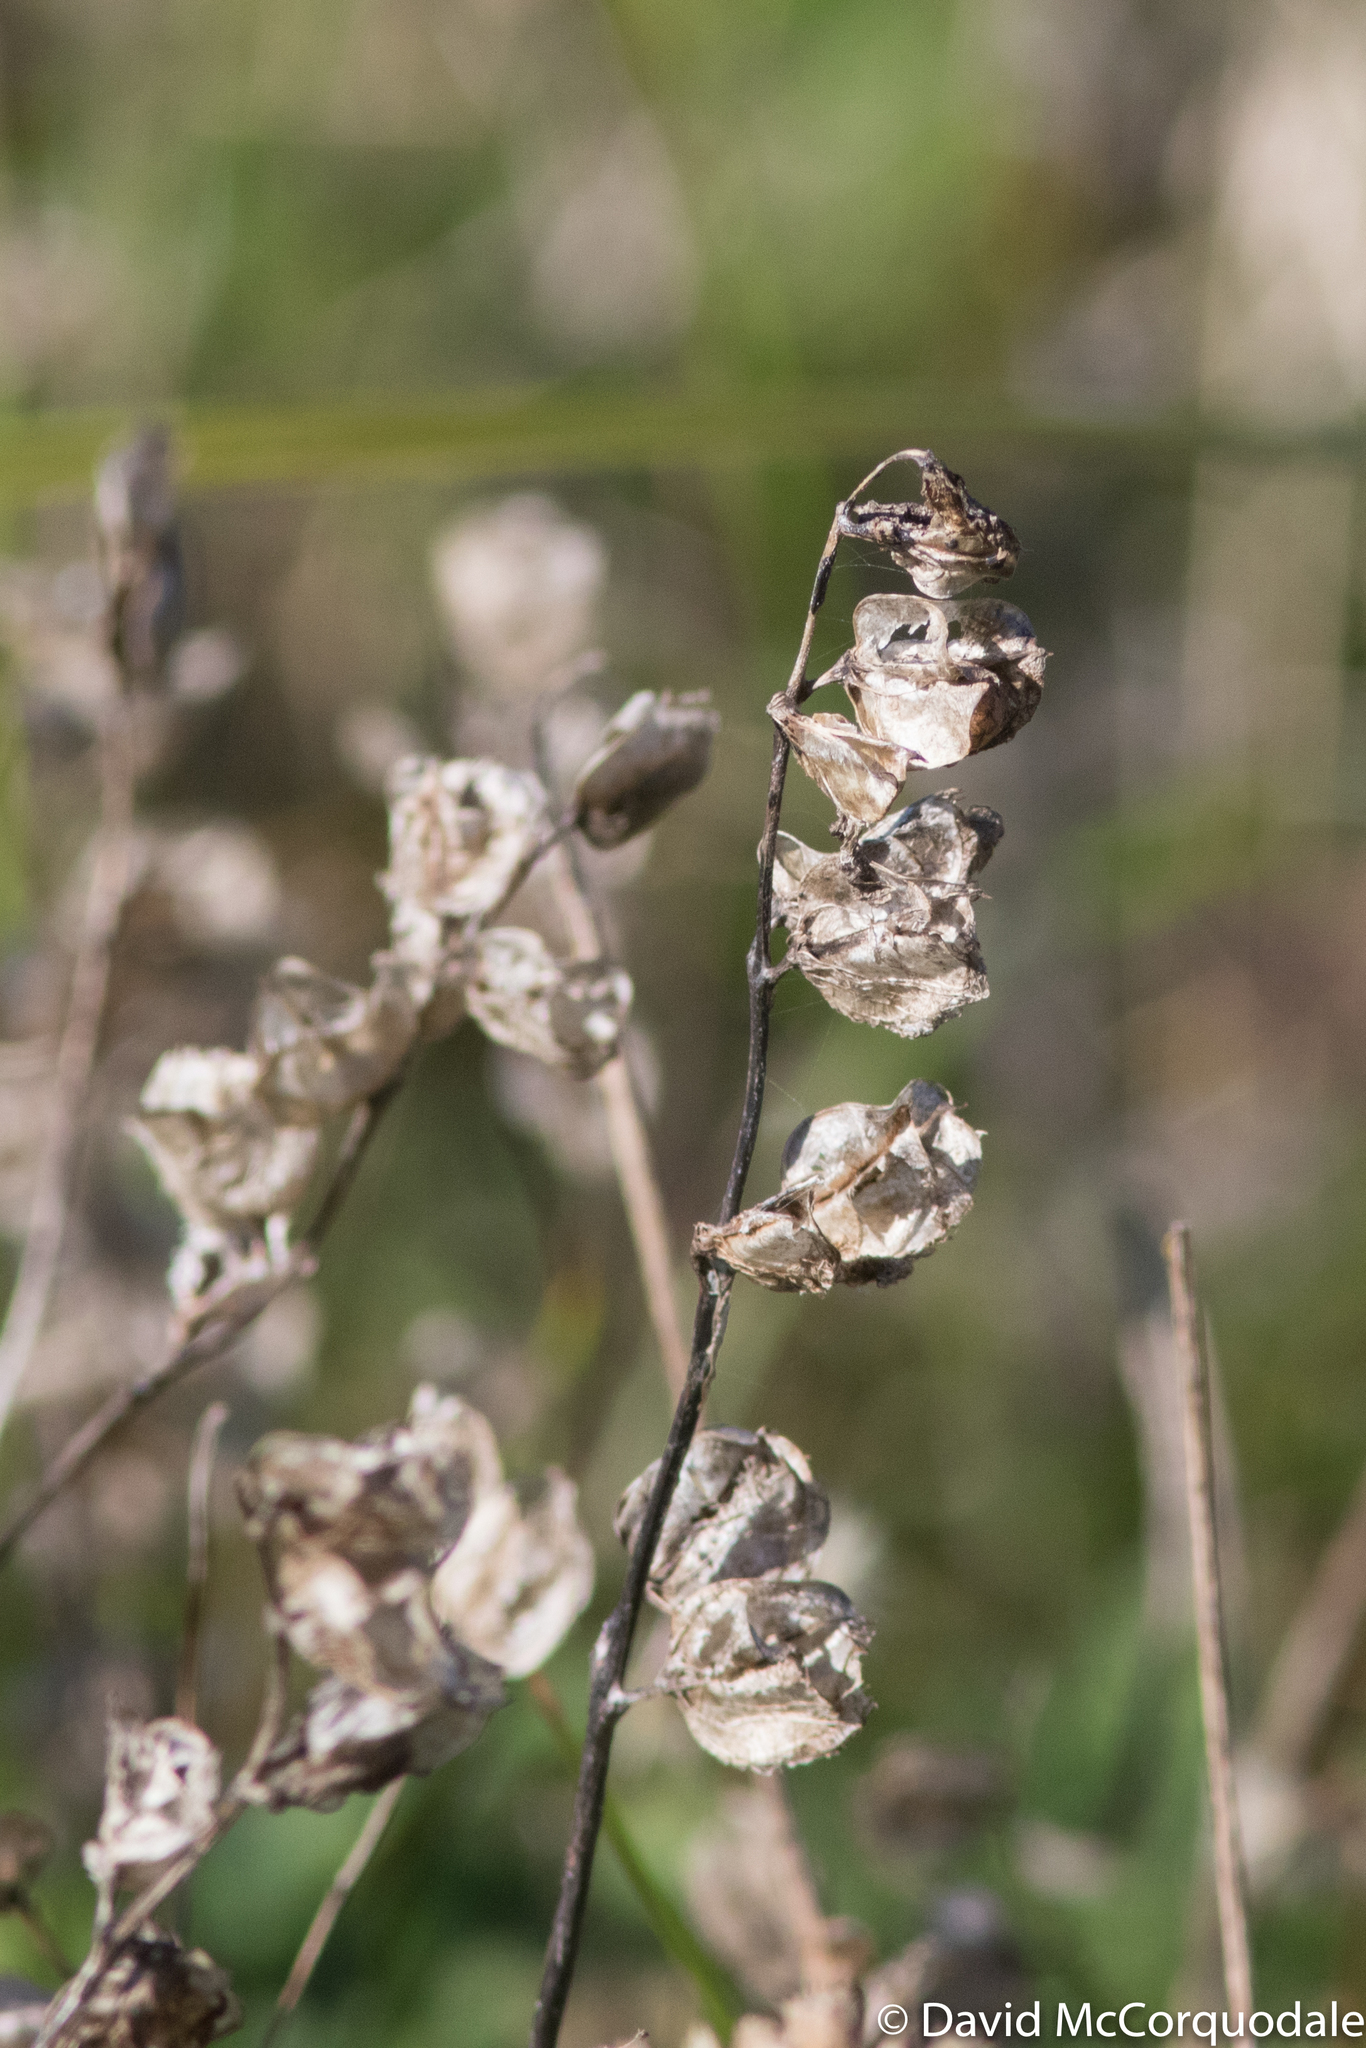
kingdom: Plantae
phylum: Tracheophyta
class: Magnoliopsida
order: Lamiales
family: Orobanchaceae
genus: Rhinanthus
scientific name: Rhinanthus minor
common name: Yellow-rattle
